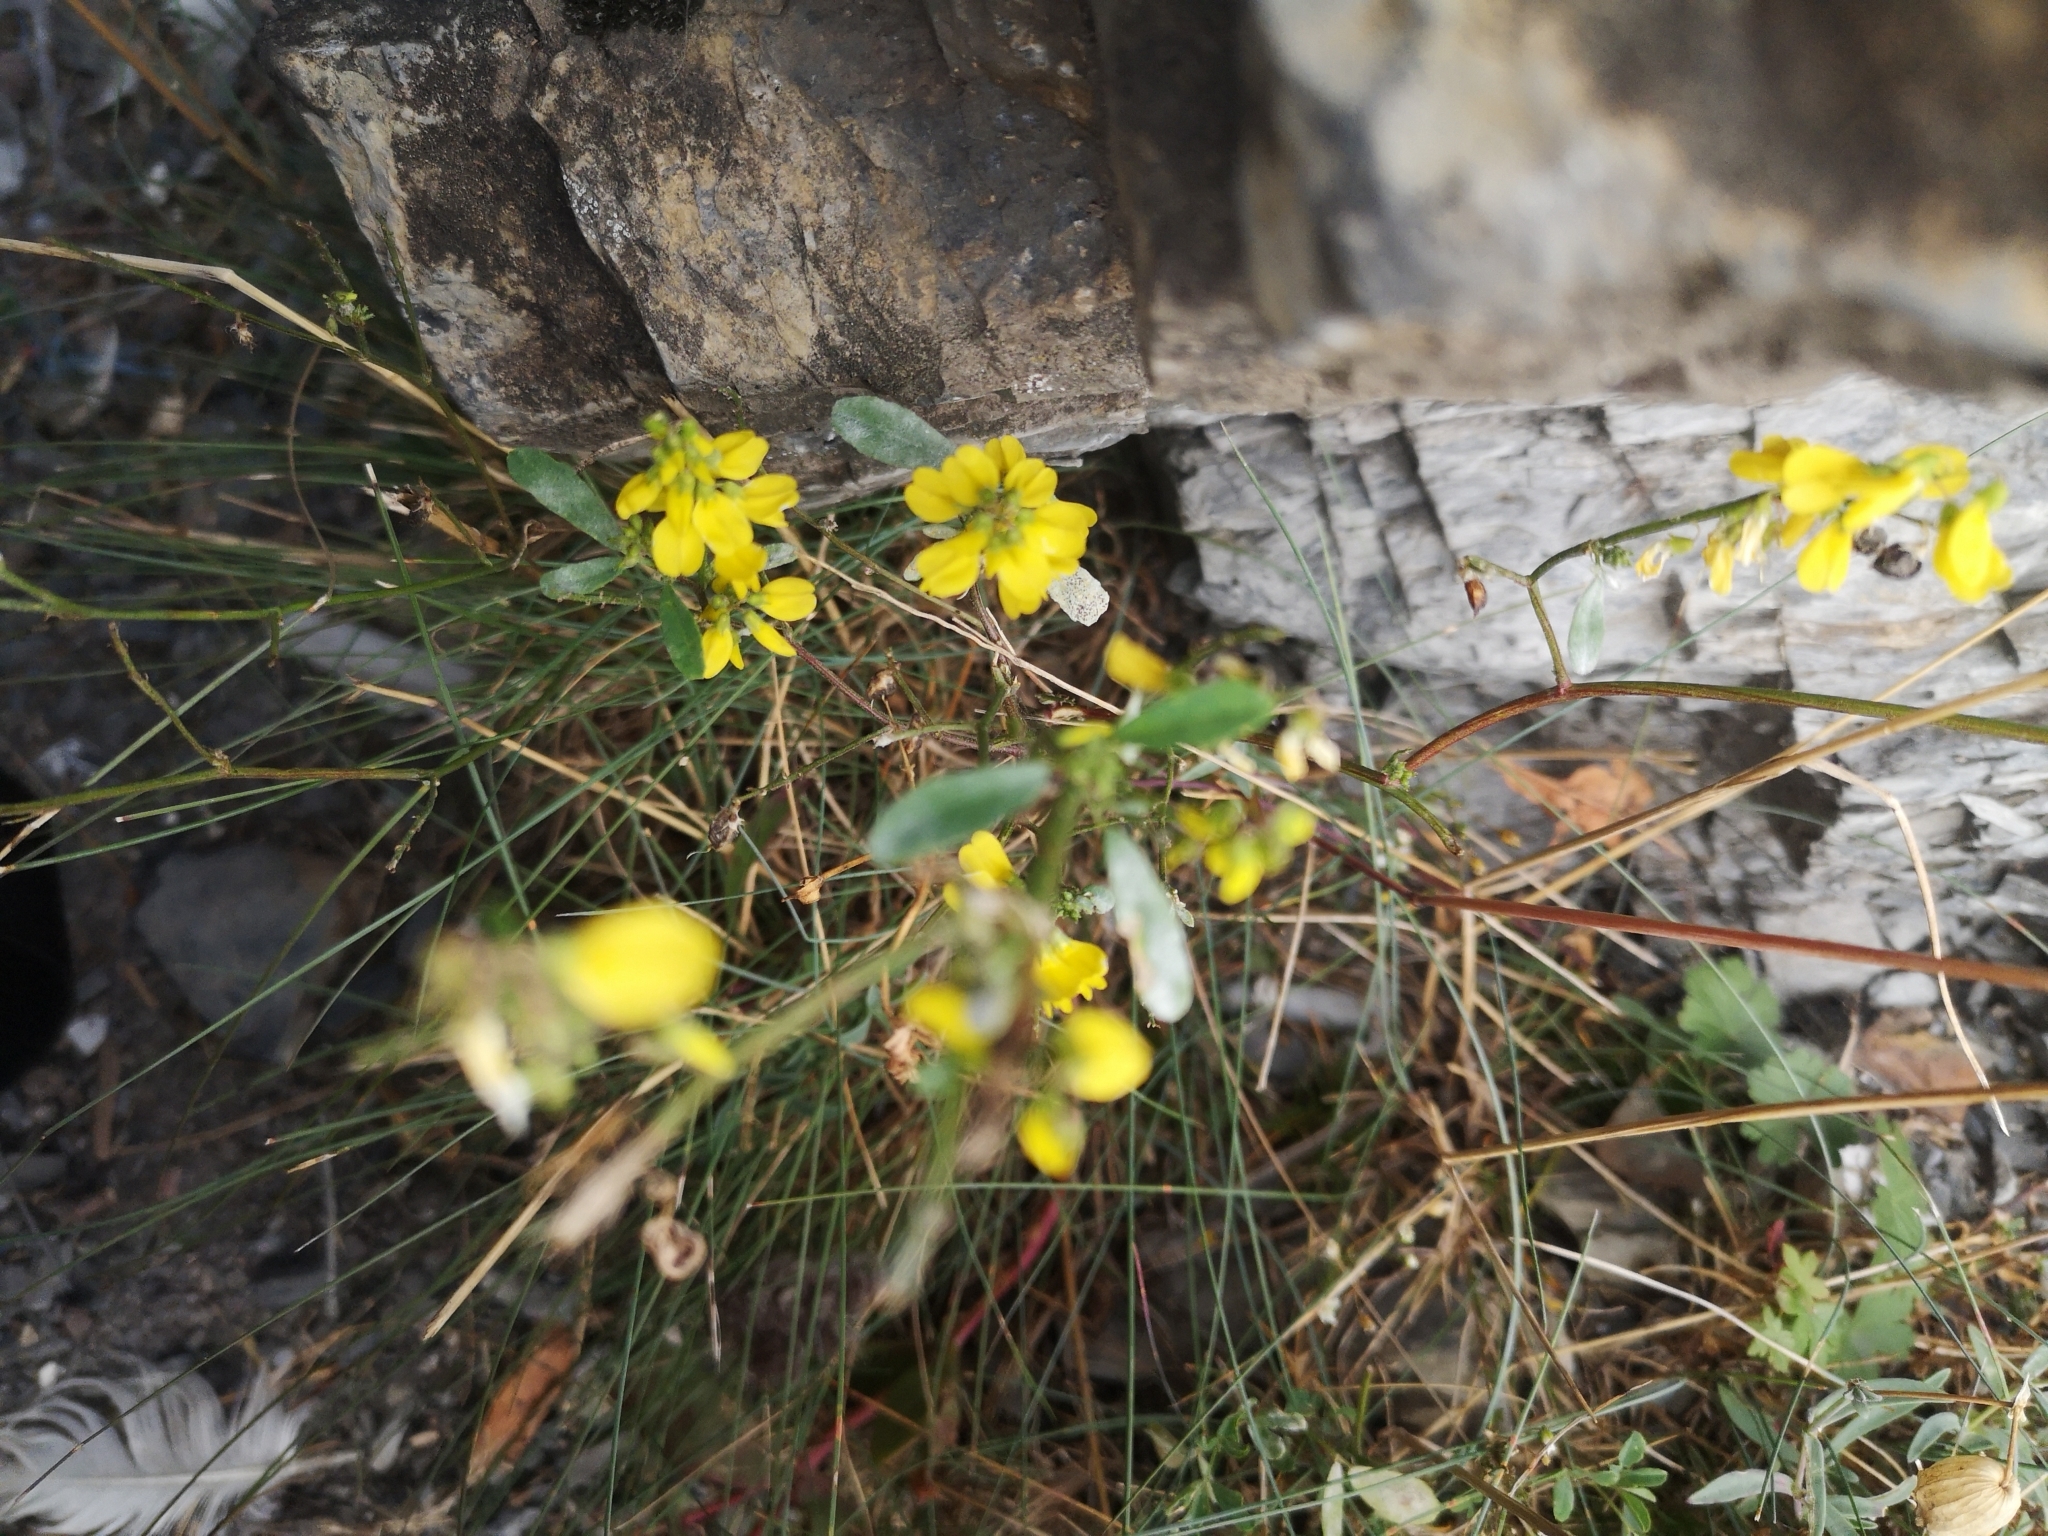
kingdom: Plantae
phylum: Tracheophyta
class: Magnoliopsida
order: Fabales
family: Fabaceae
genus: Melilotus
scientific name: Melilotus officinalis
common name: Sweetclover
